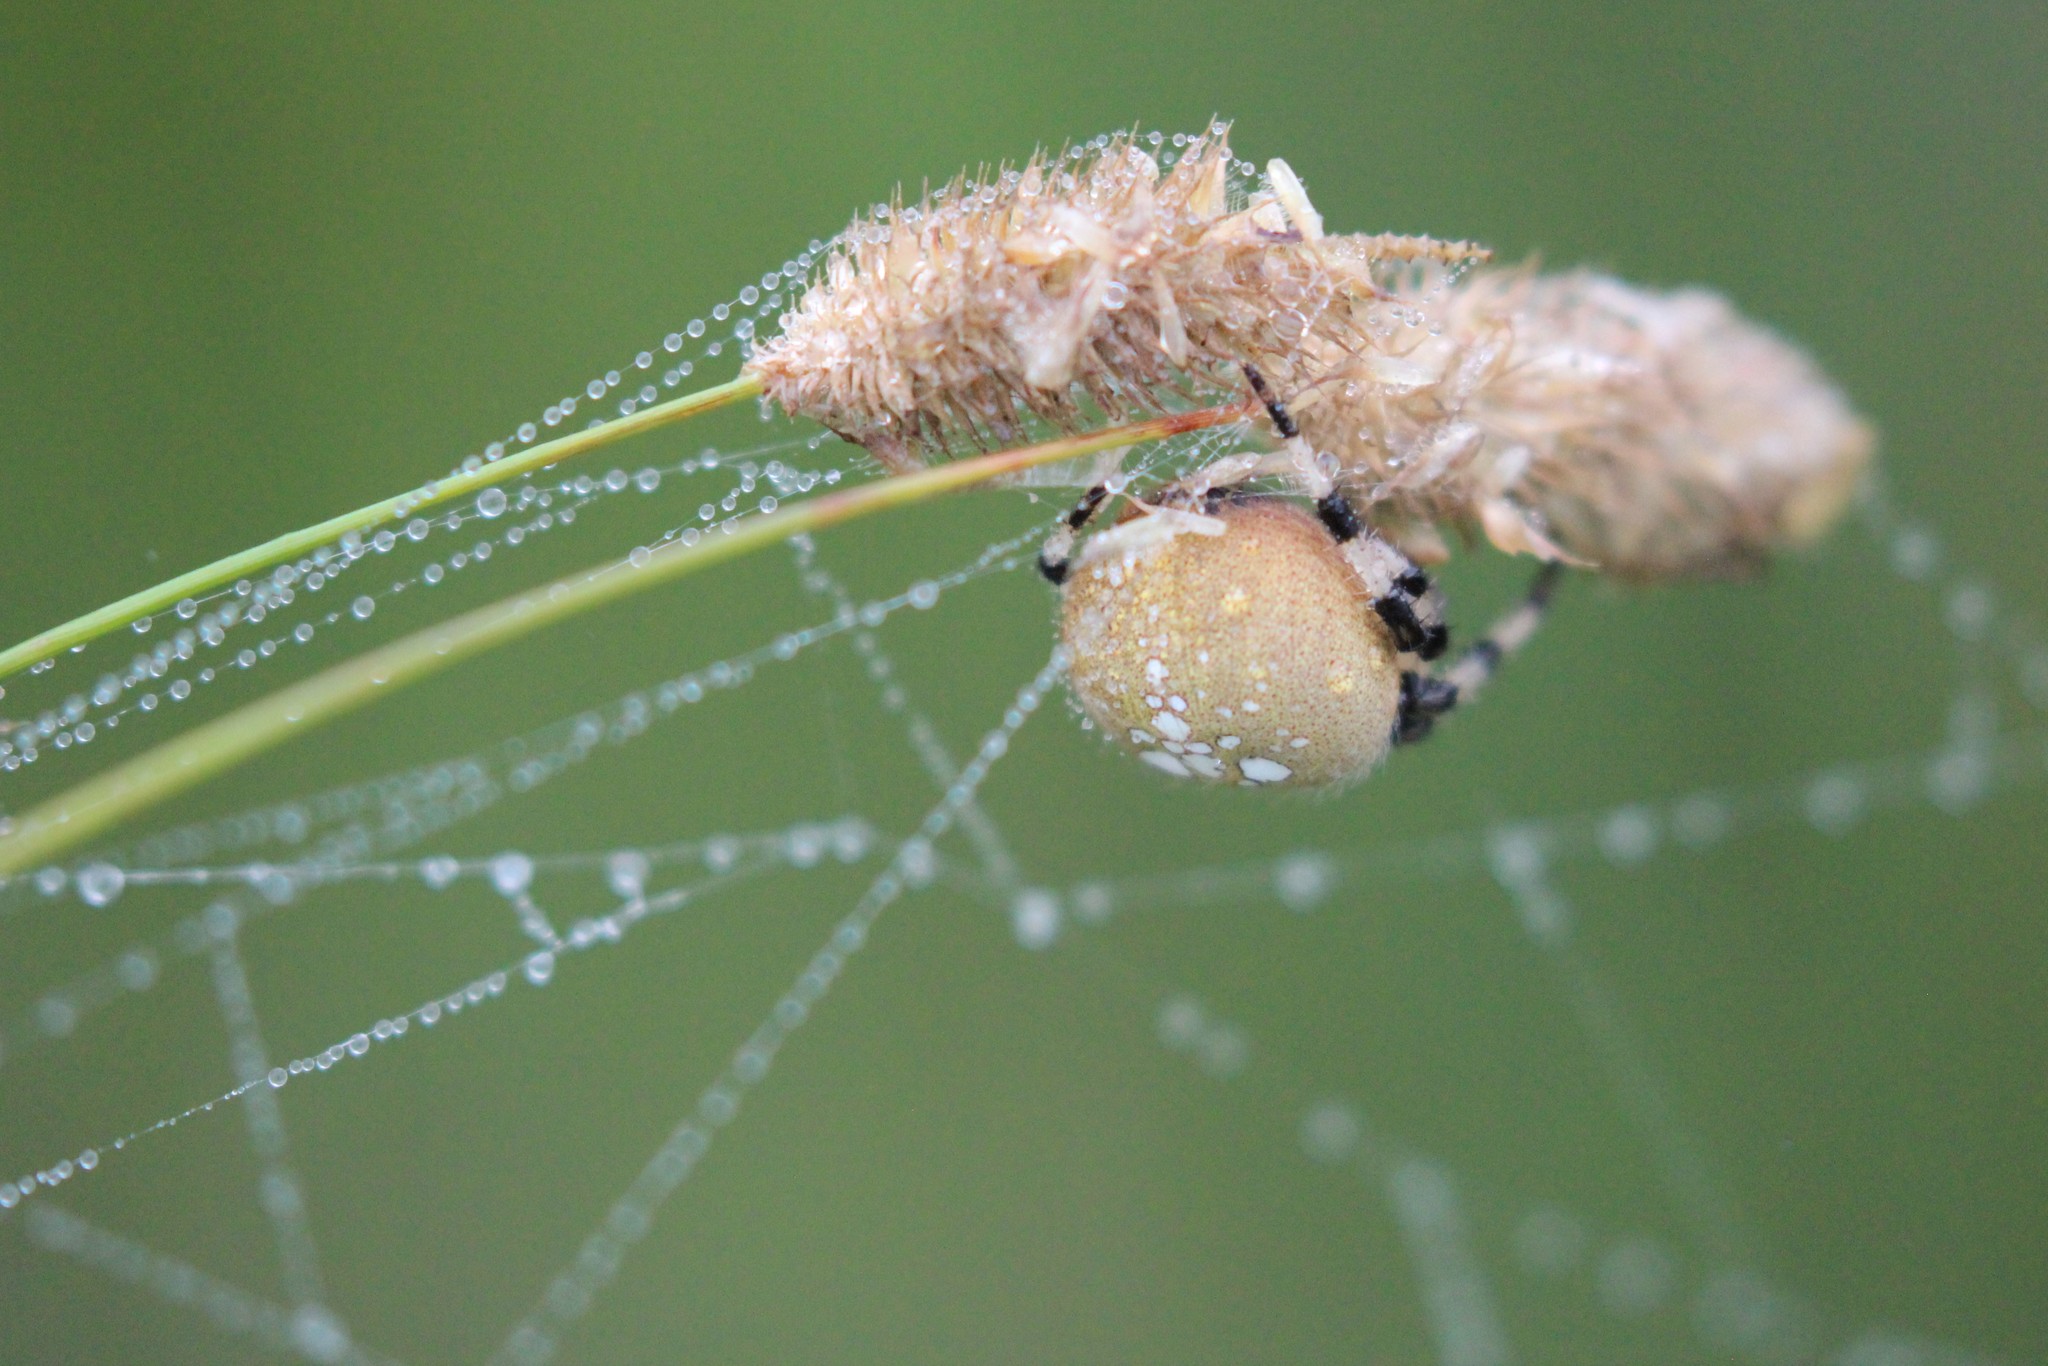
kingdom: Animalia
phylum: Arthropoda
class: Arachnida
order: Araneae
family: Araneidae
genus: Araneus
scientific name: Araneus trifolium
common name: Shamrock orbweaver
